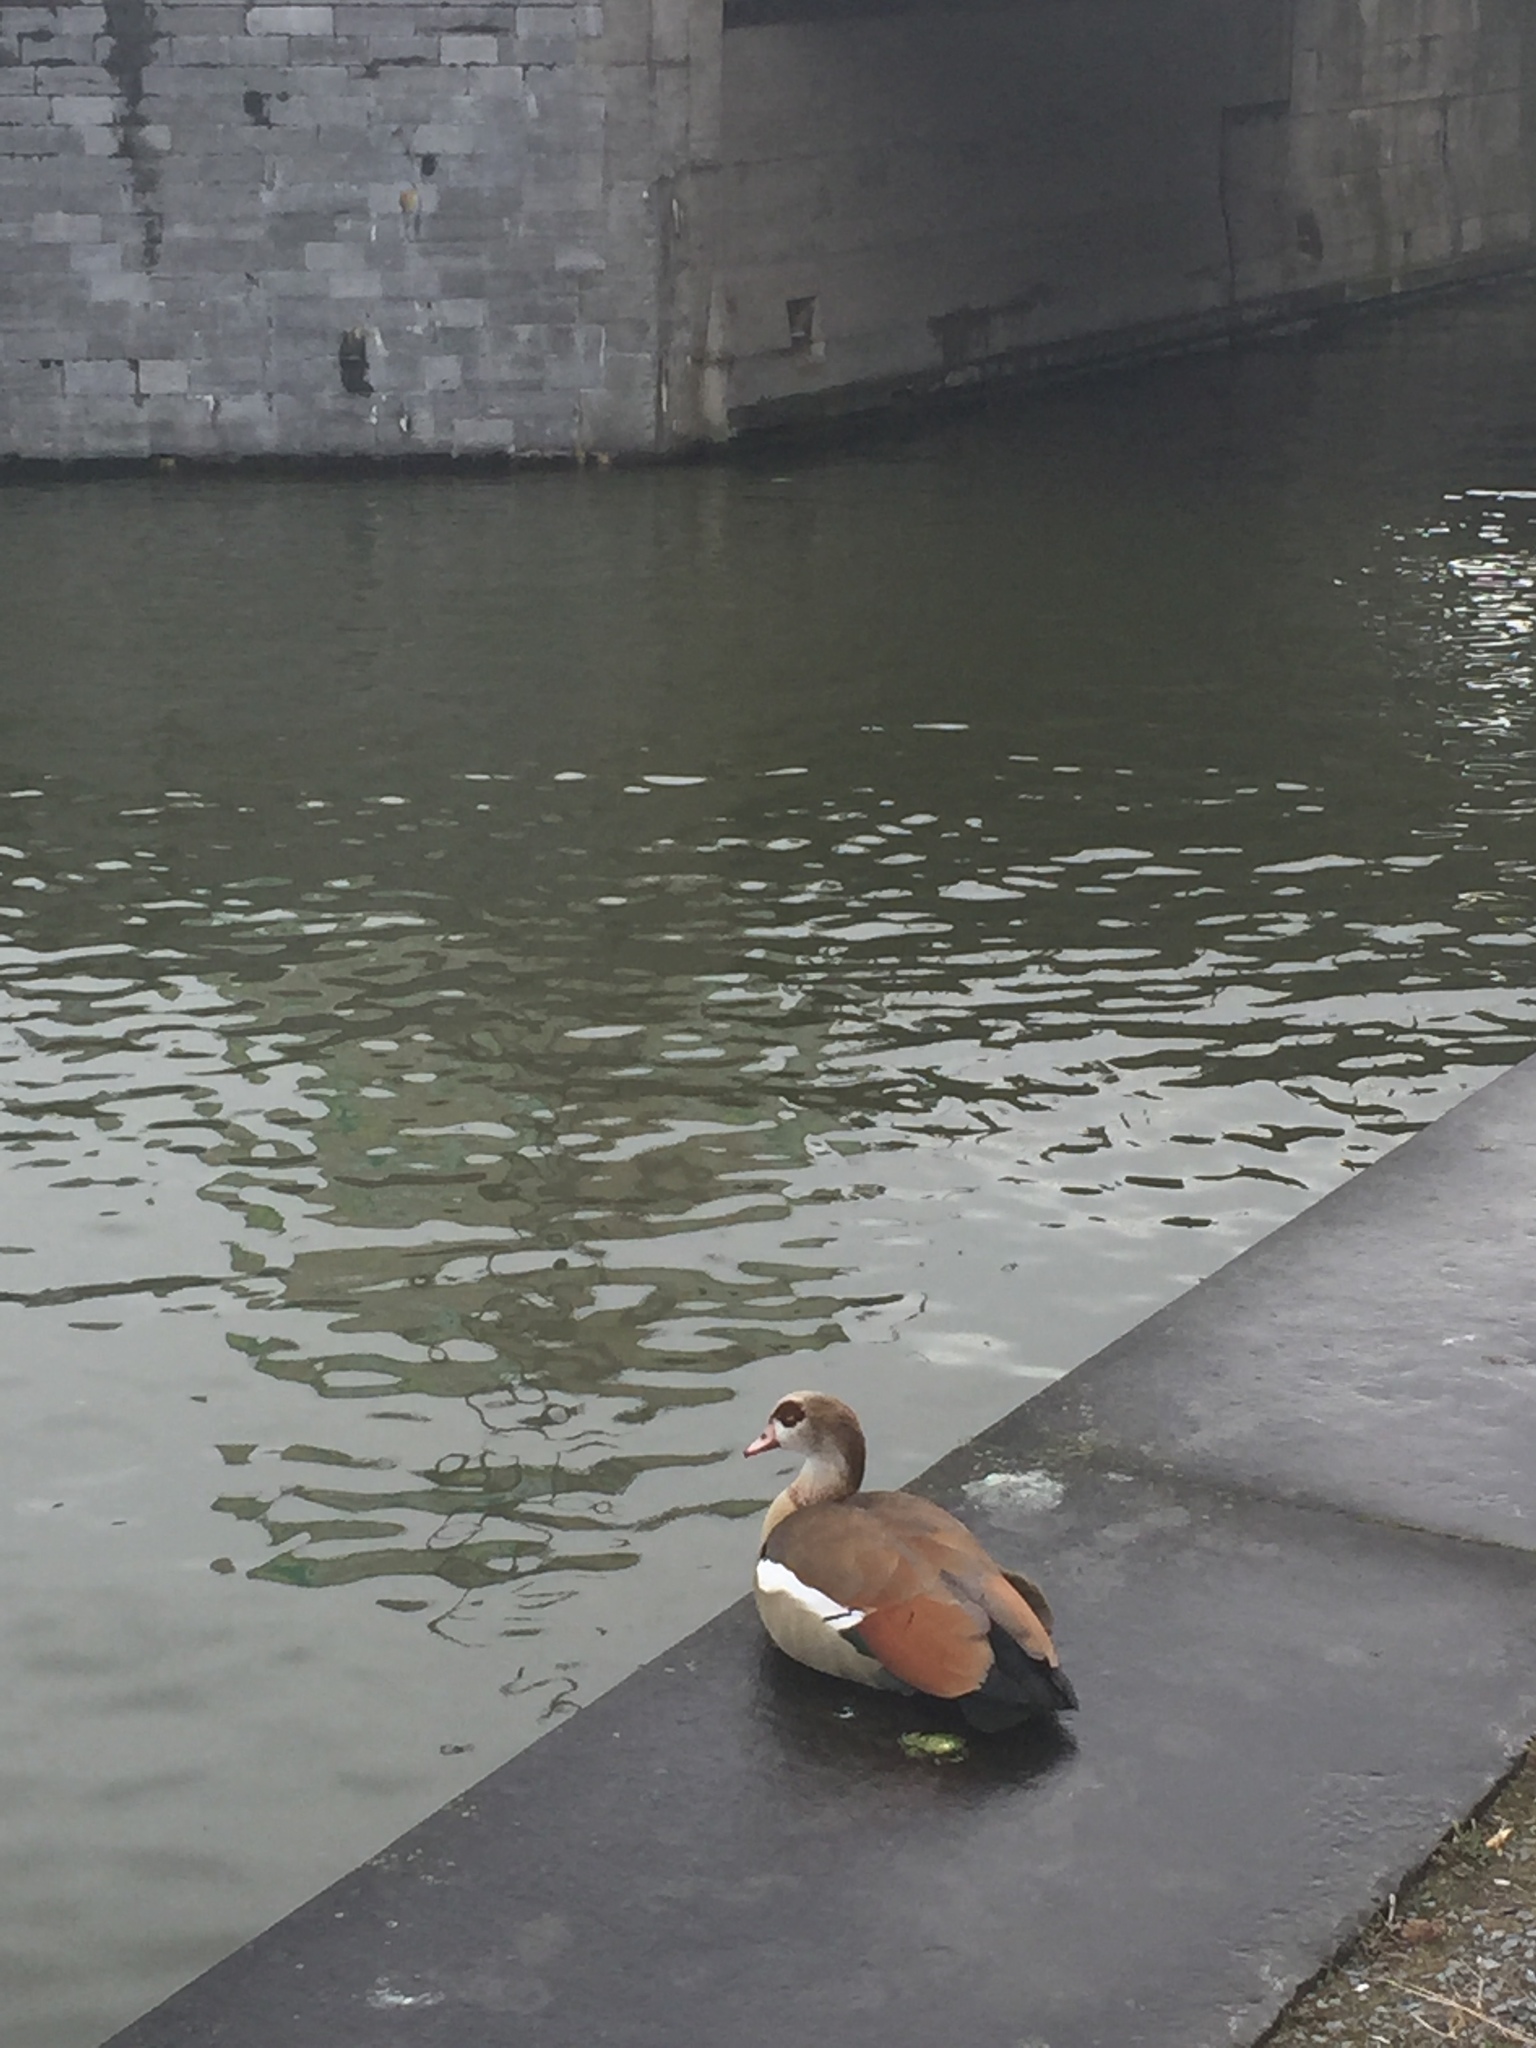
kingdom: Animalia
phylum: Chordata
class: Aves
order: Anseriformes
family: Anatidae
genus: Alopochen
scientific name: Alopochen aegyptiaca
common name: Egyptian goose
